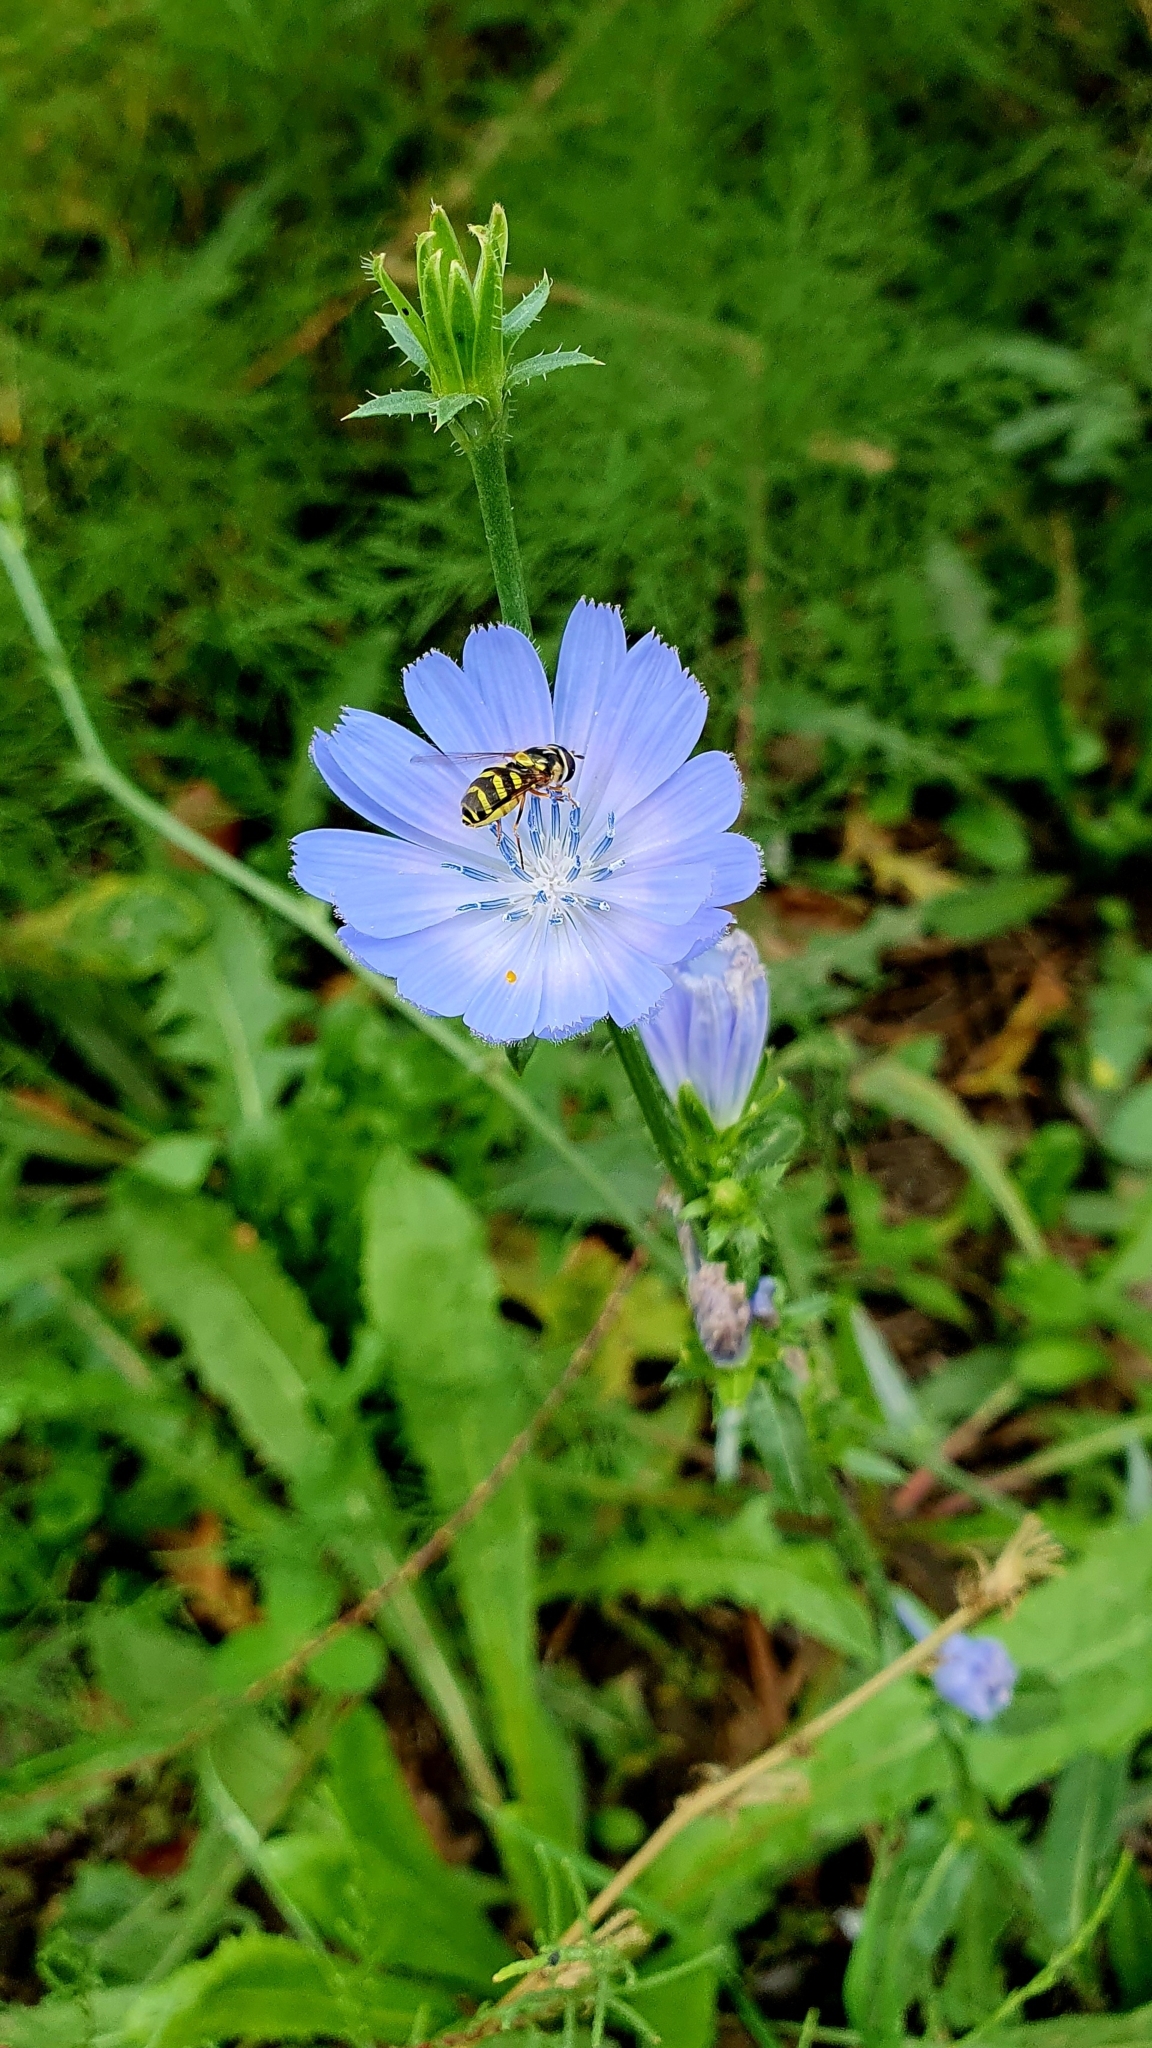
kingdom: Plantae
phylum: Tracheophyta
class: Magnoliopsida
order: Asterales
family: Asteraceae
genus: Cichorium
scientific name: Cichorium intybus
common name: Chicory
